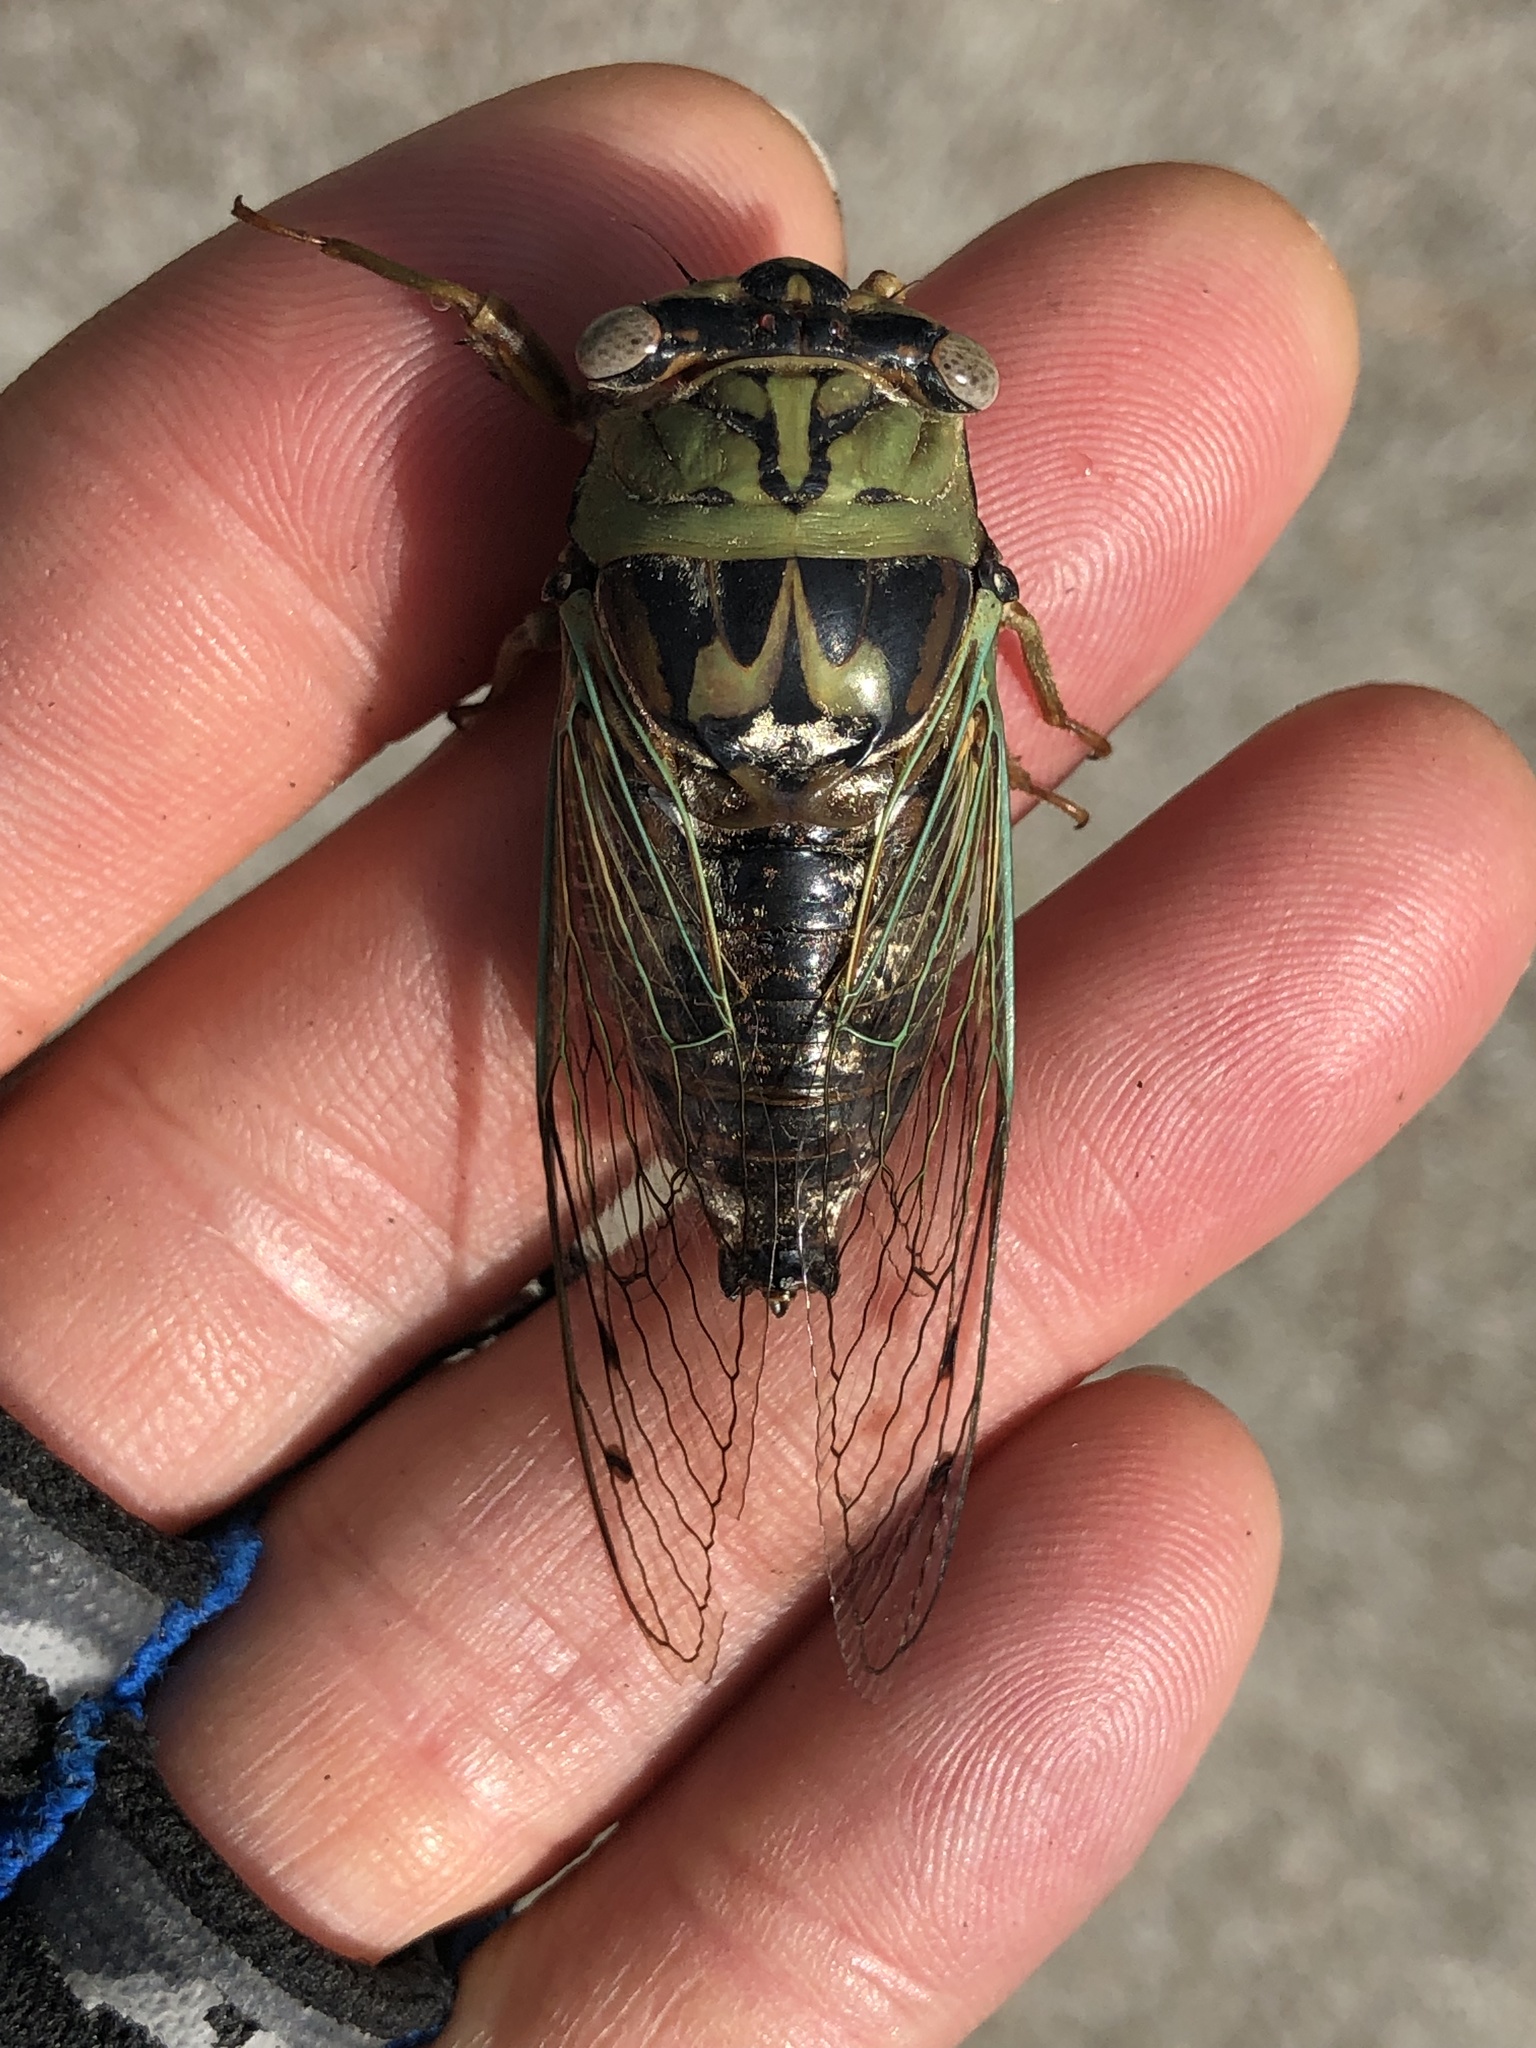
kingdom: Animalia
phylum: Arthropoda
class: Insecta
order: Hemiptera
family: Cicadidae
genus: Megatibicen
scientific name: Megatibicen resh
